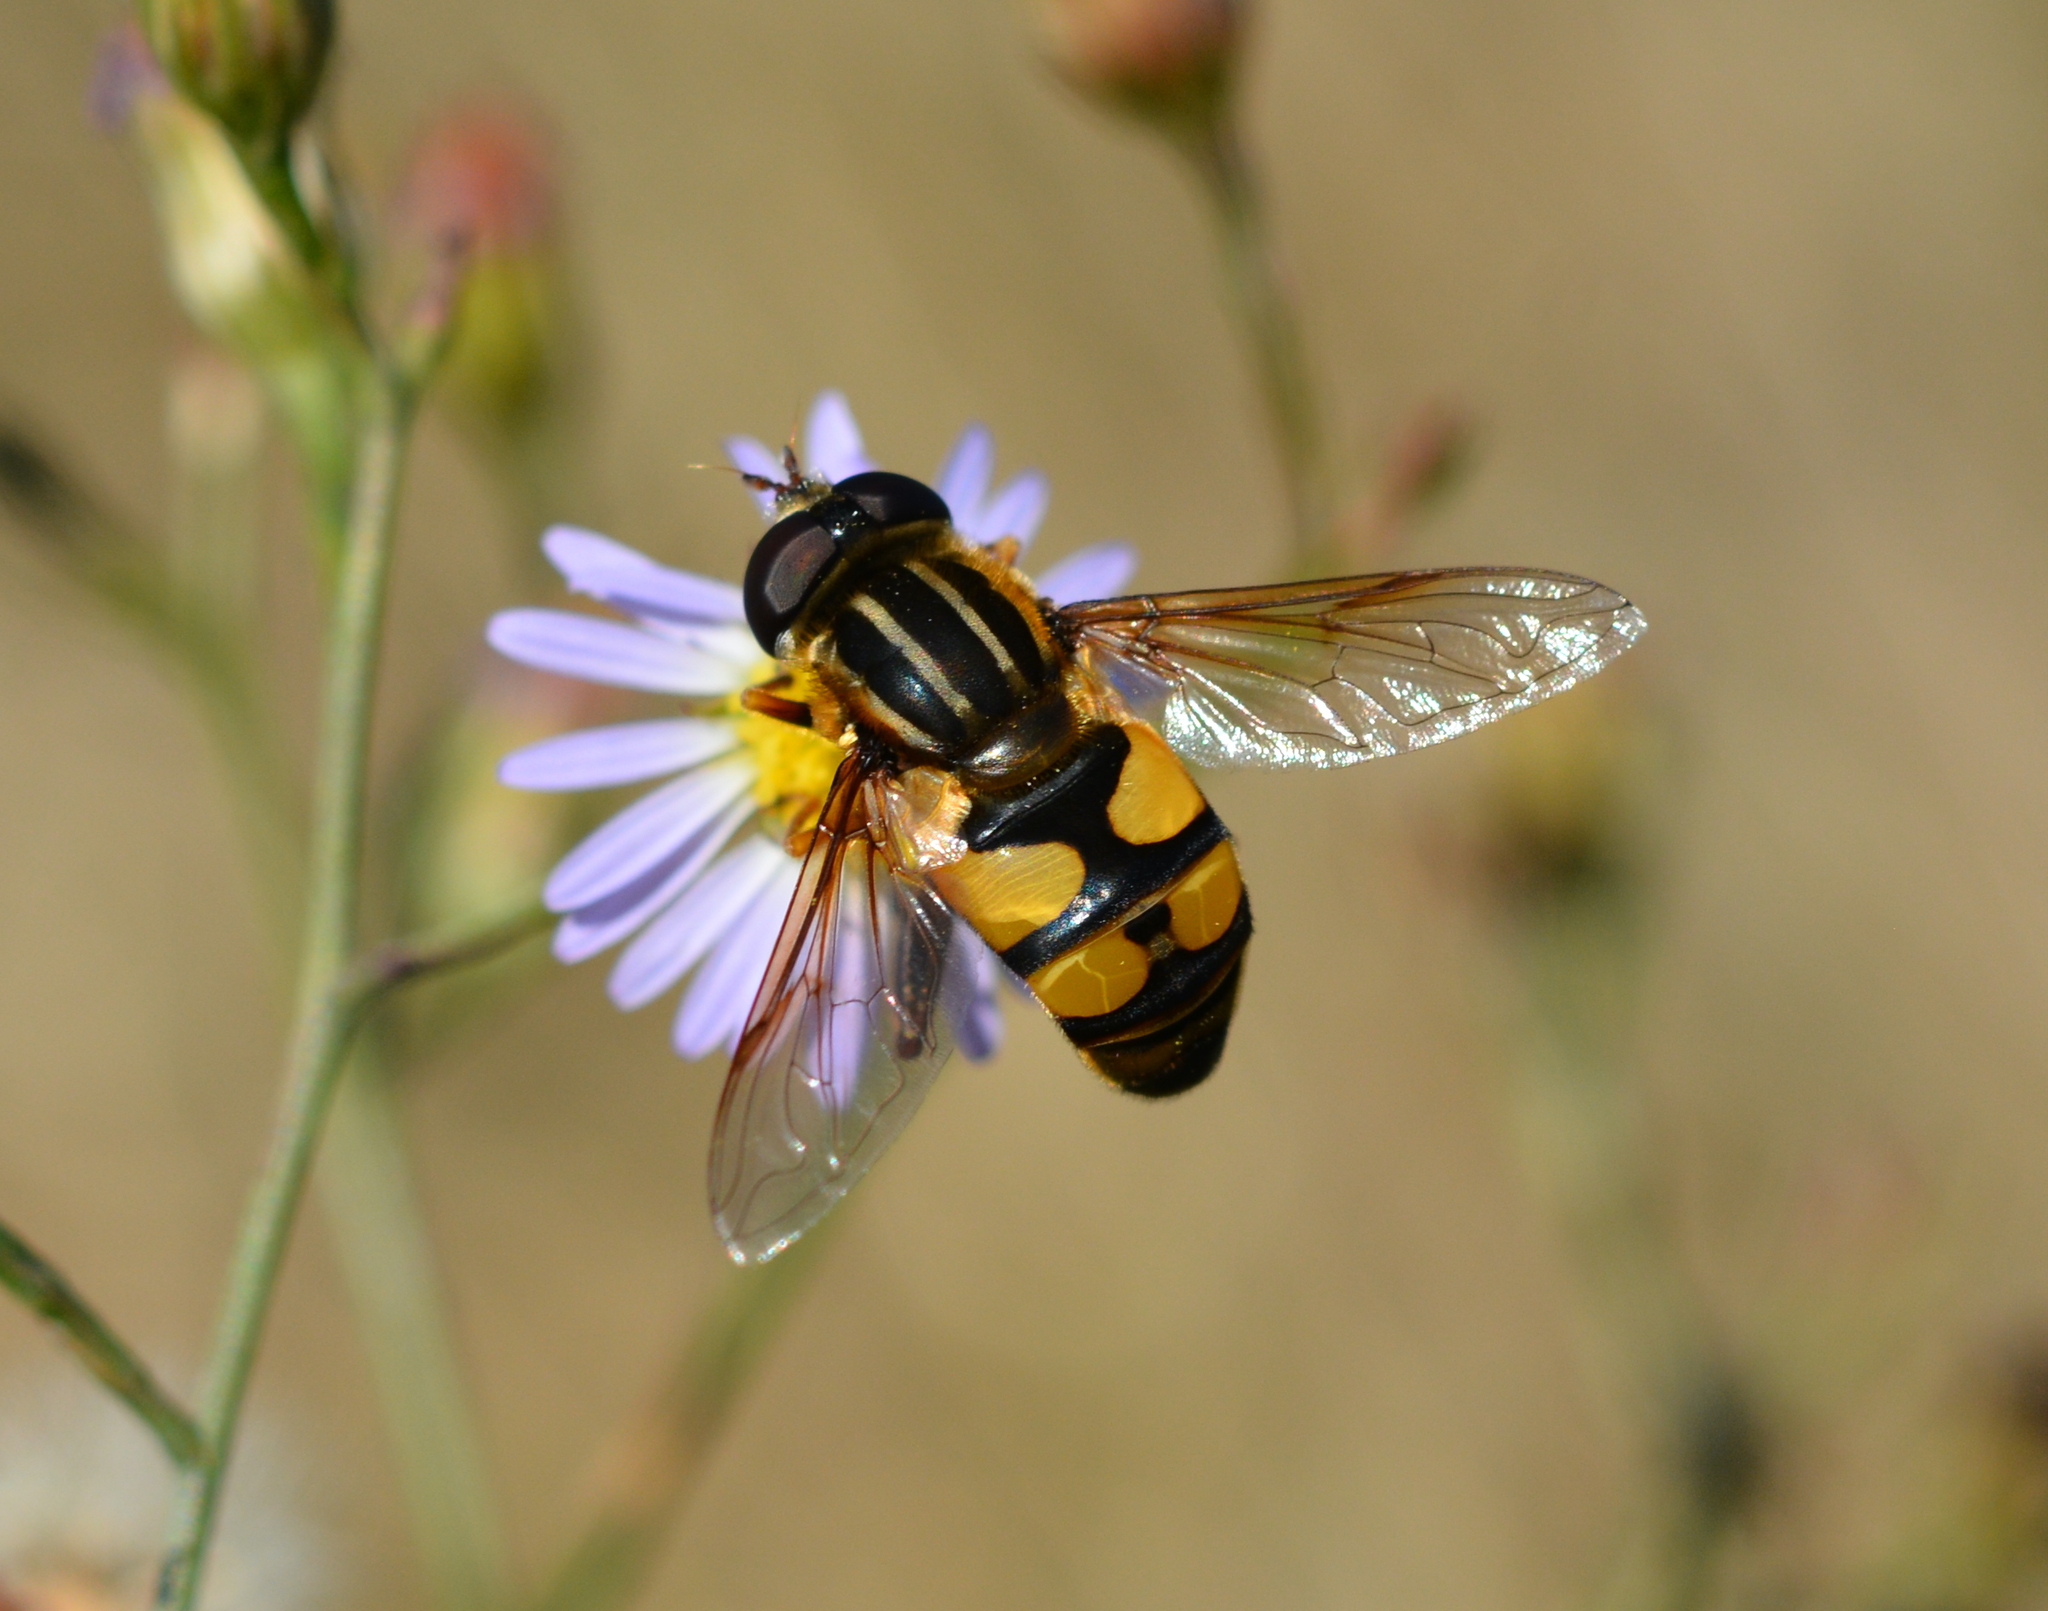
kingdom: Animalia
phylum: Arthropoda
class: Insecta
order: Diptera
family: Syrphidae
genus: Helophilus
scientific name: Helophilus fasciatus
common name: Narrow-headed marsh fly
